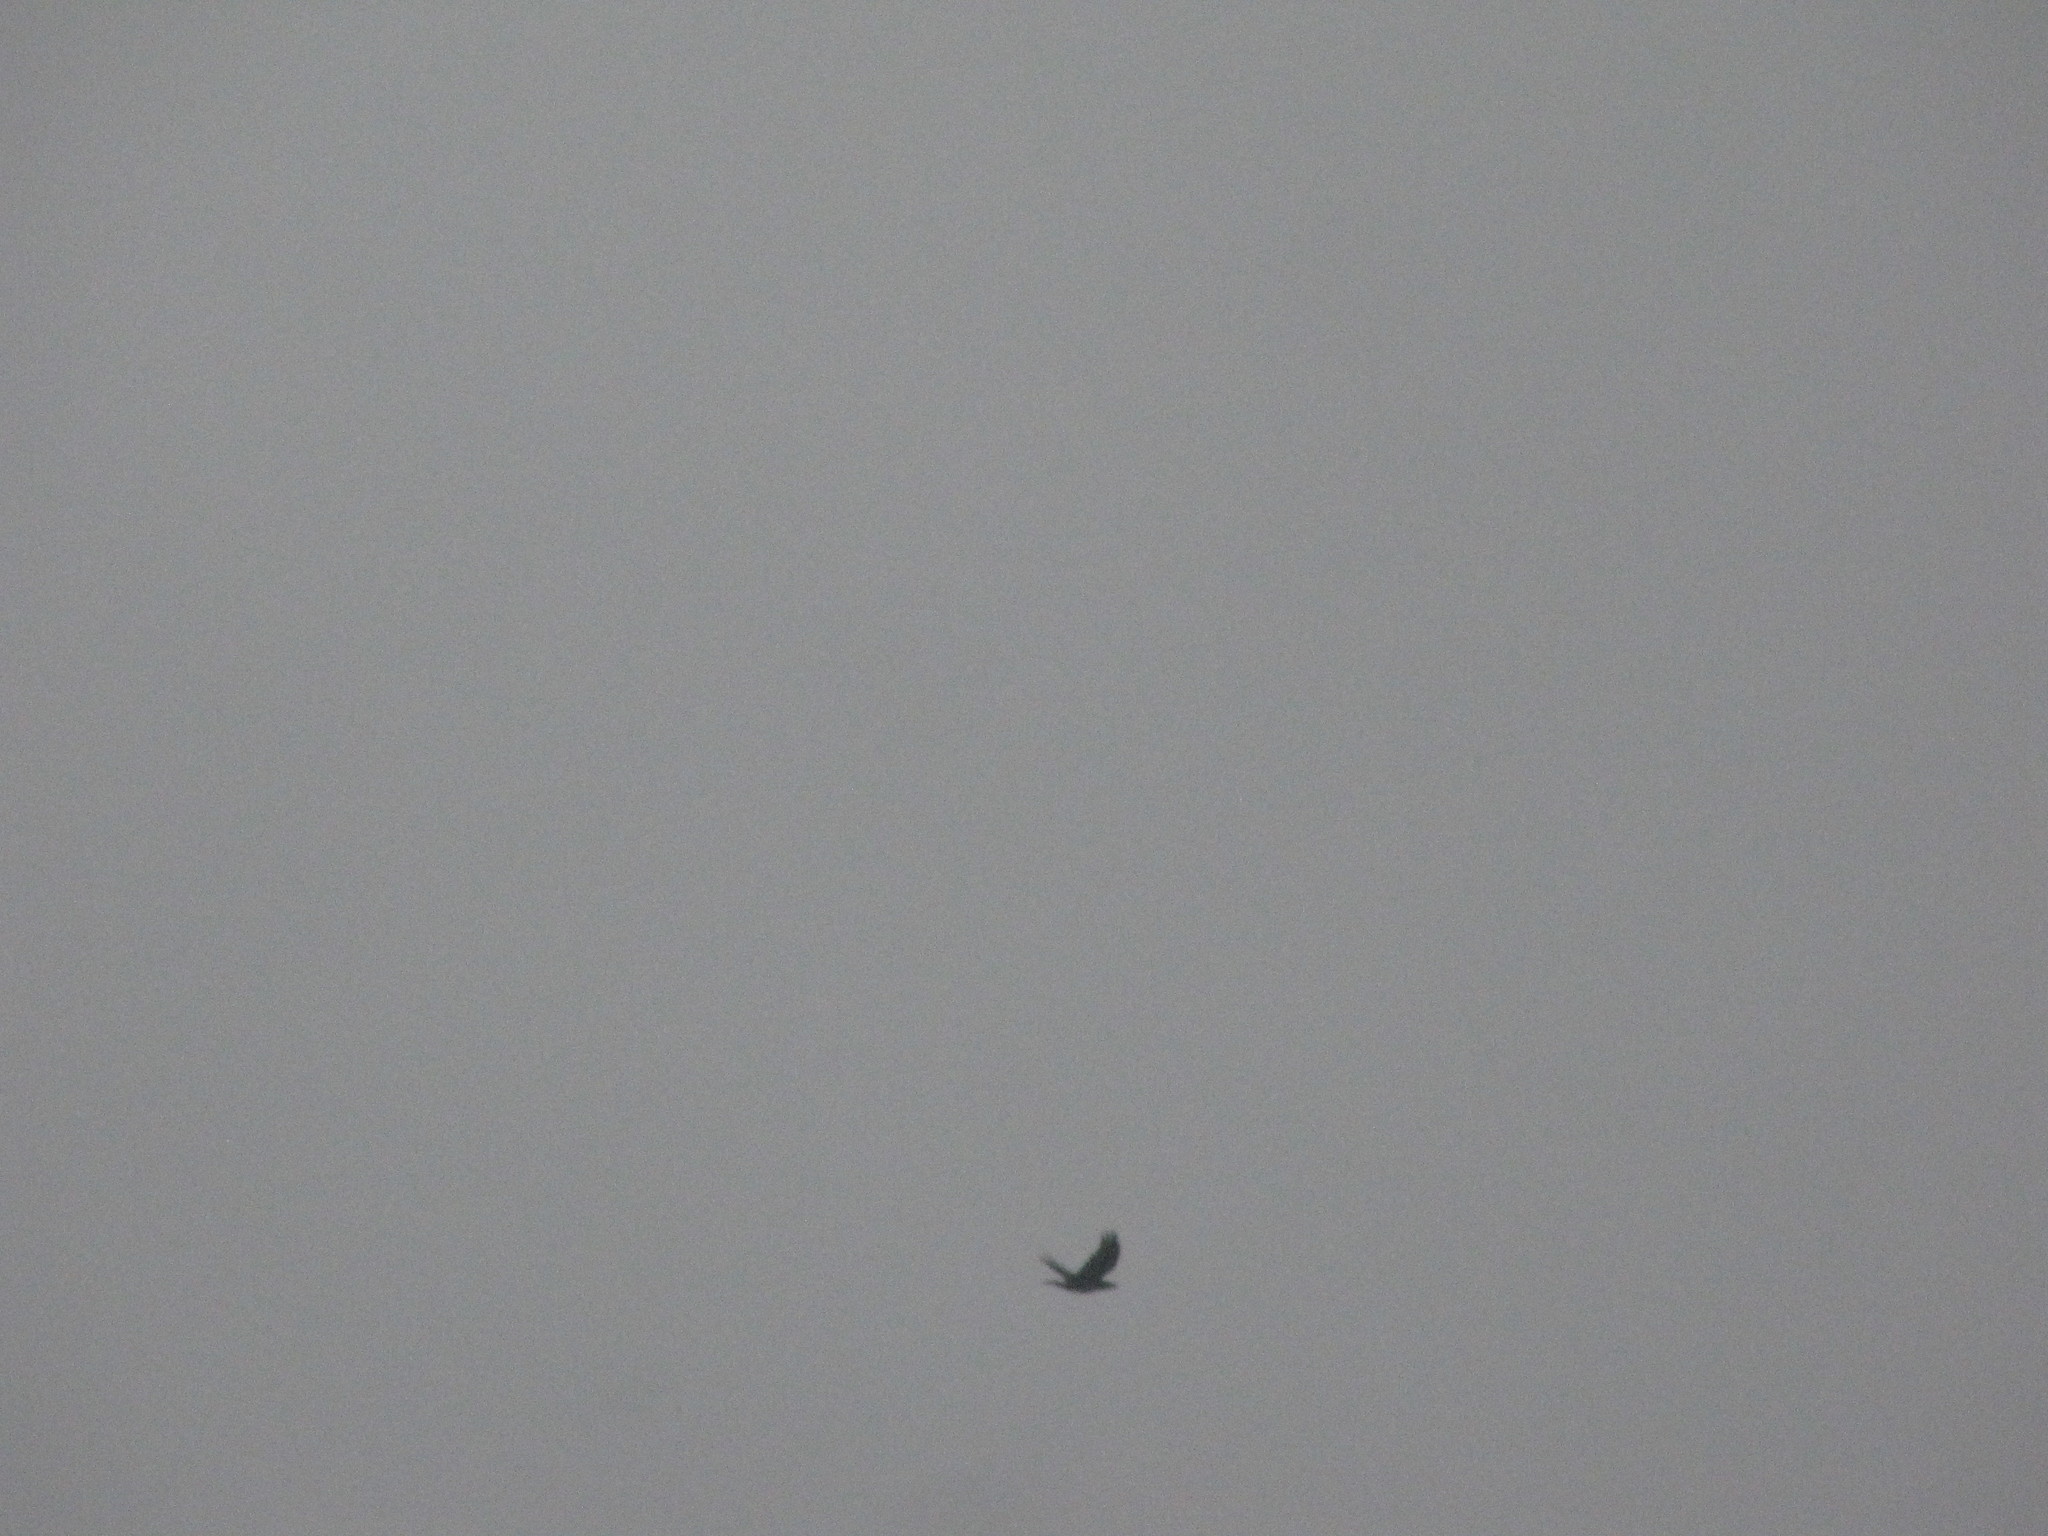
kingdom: Animalia
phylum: Chordata
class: Aves
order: Passeriformes
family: Corvidae
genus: Corvus
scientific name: Corvus brachyrhynchos
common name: American crow
